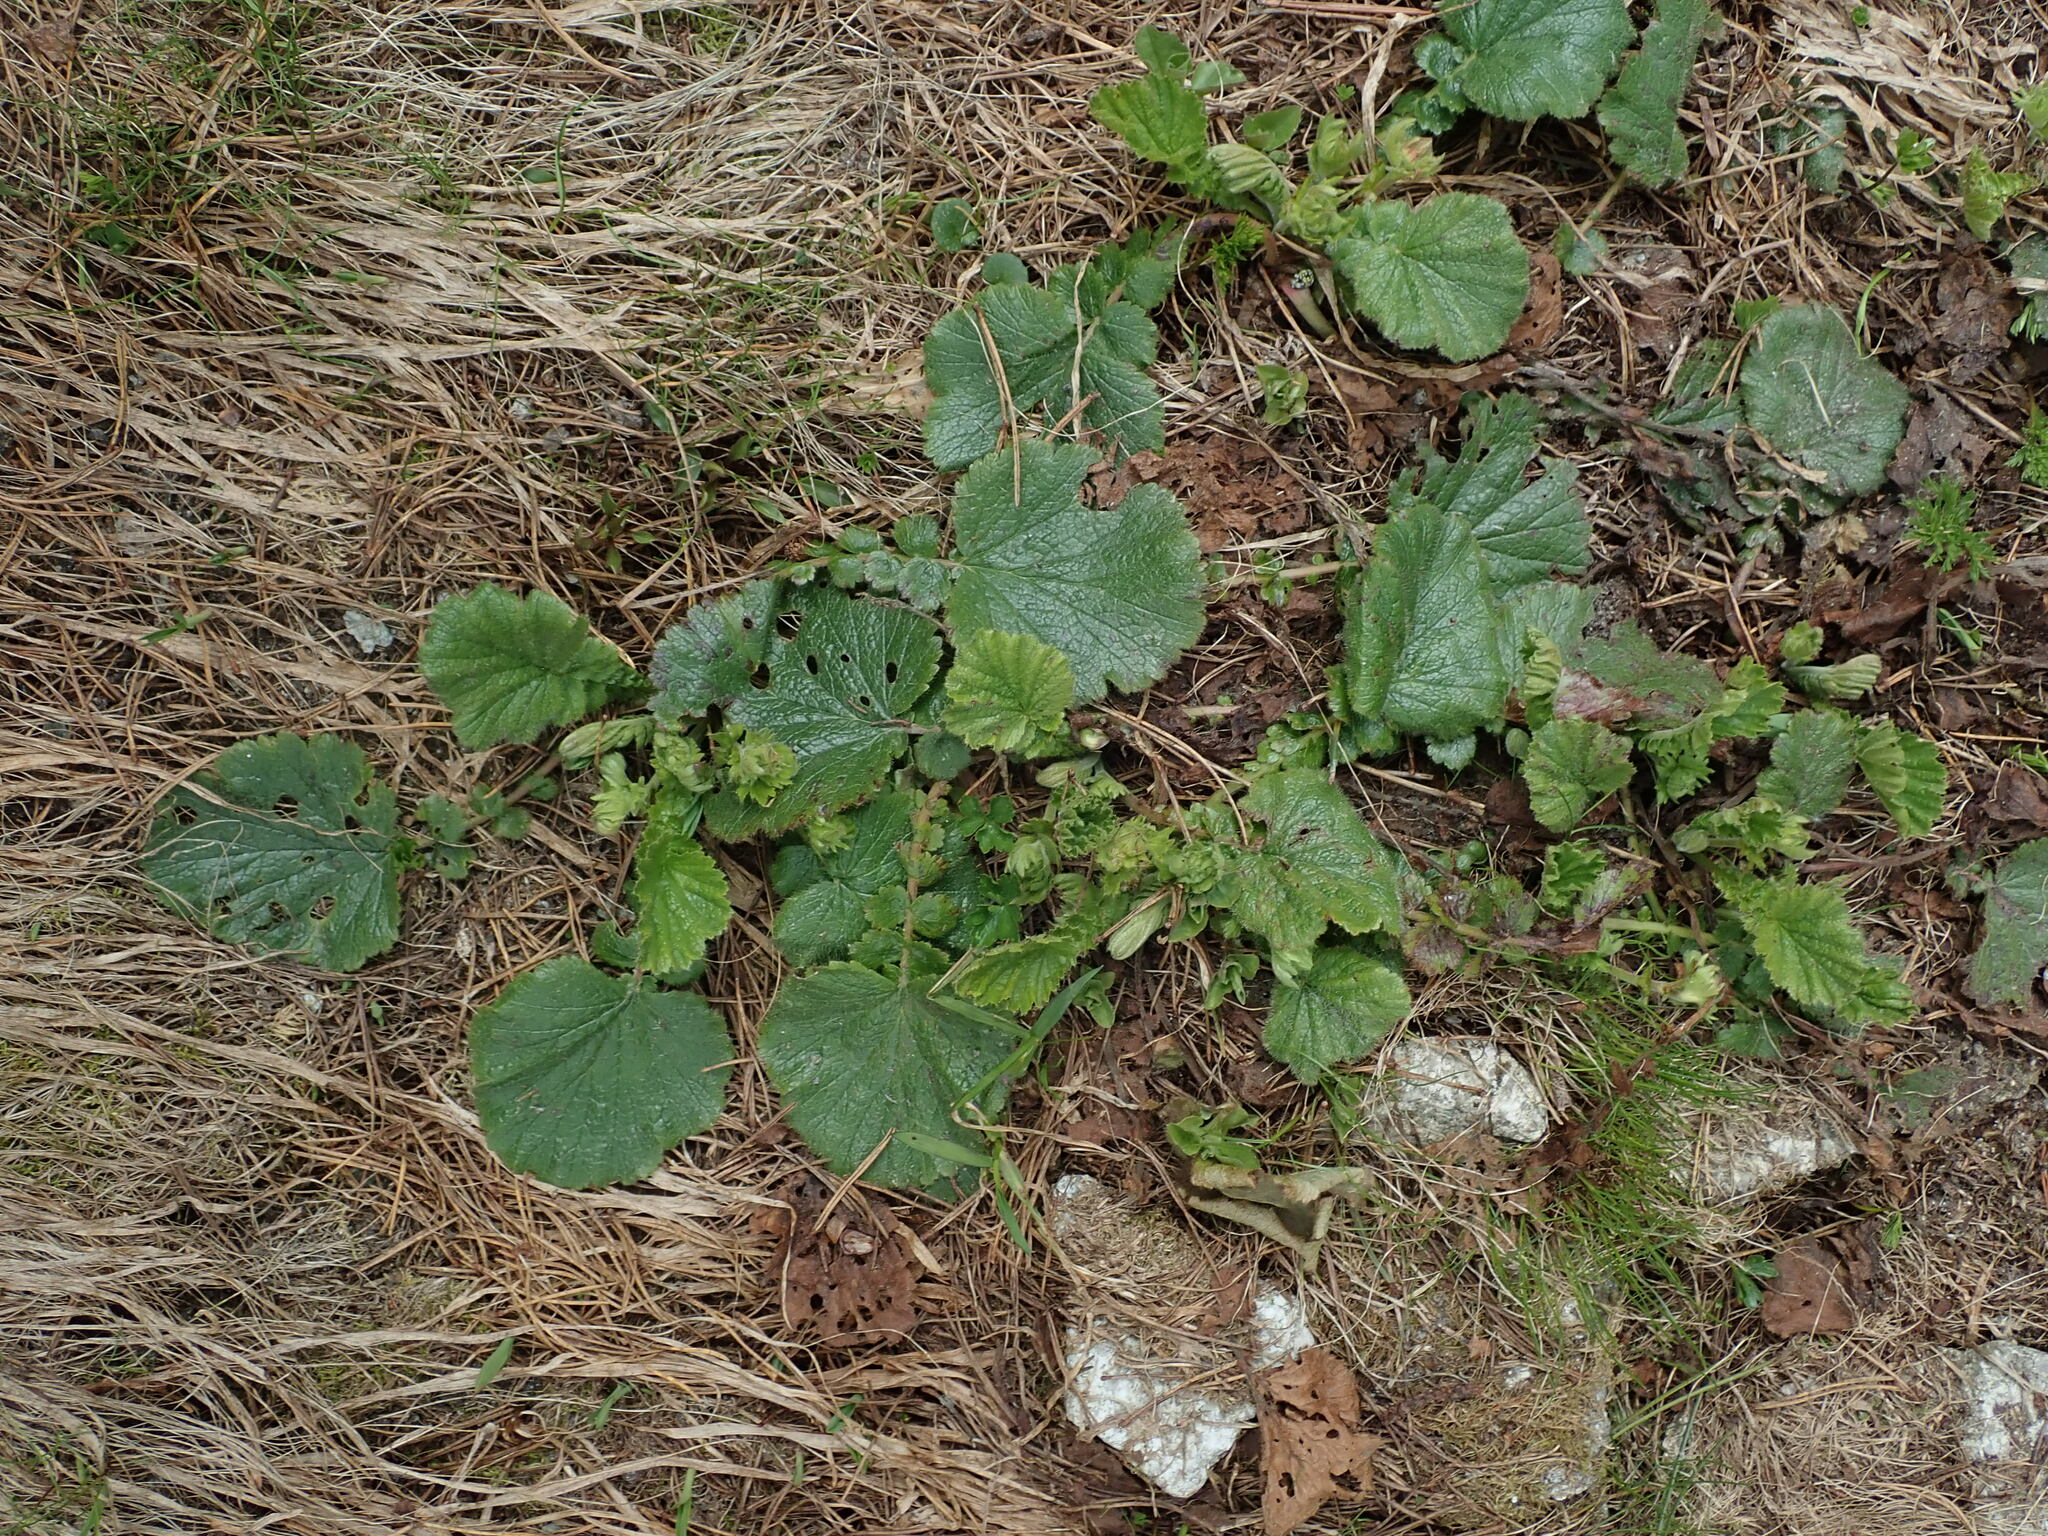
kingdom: Plantae
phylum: Tracheophyta
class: Magnoliopsida
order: Rosales
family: Rosaceae
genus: Geum
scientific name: Geum montanum
